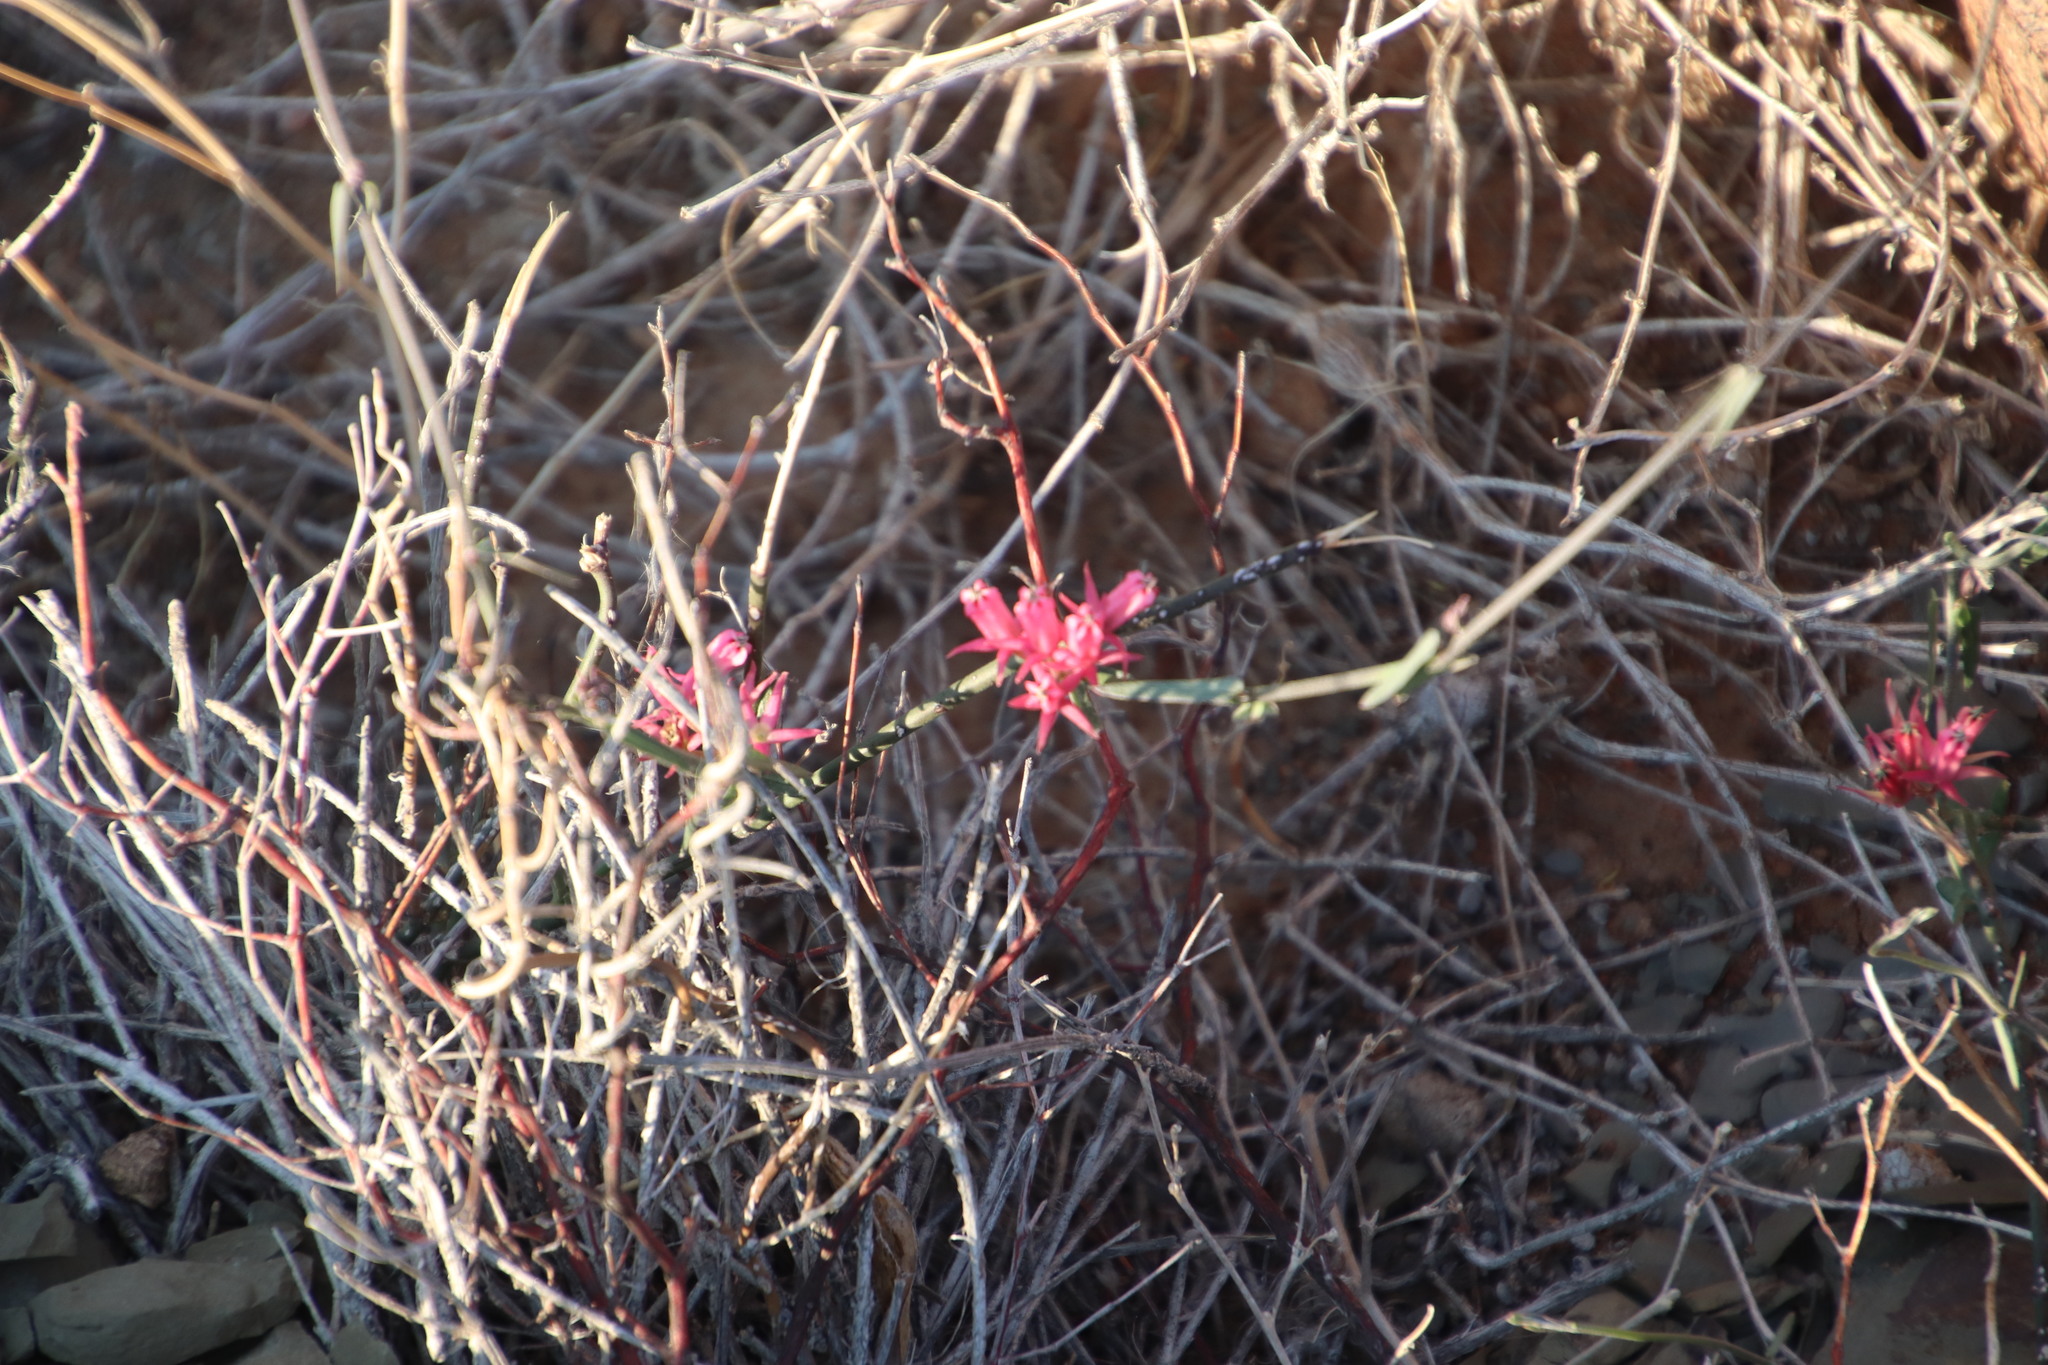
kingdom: Plantae
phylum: Tracheophyta
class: Magnoliopsida
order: Gentianales
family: Apocynaceae
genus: Microloma
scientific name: Microloma sagittatum
